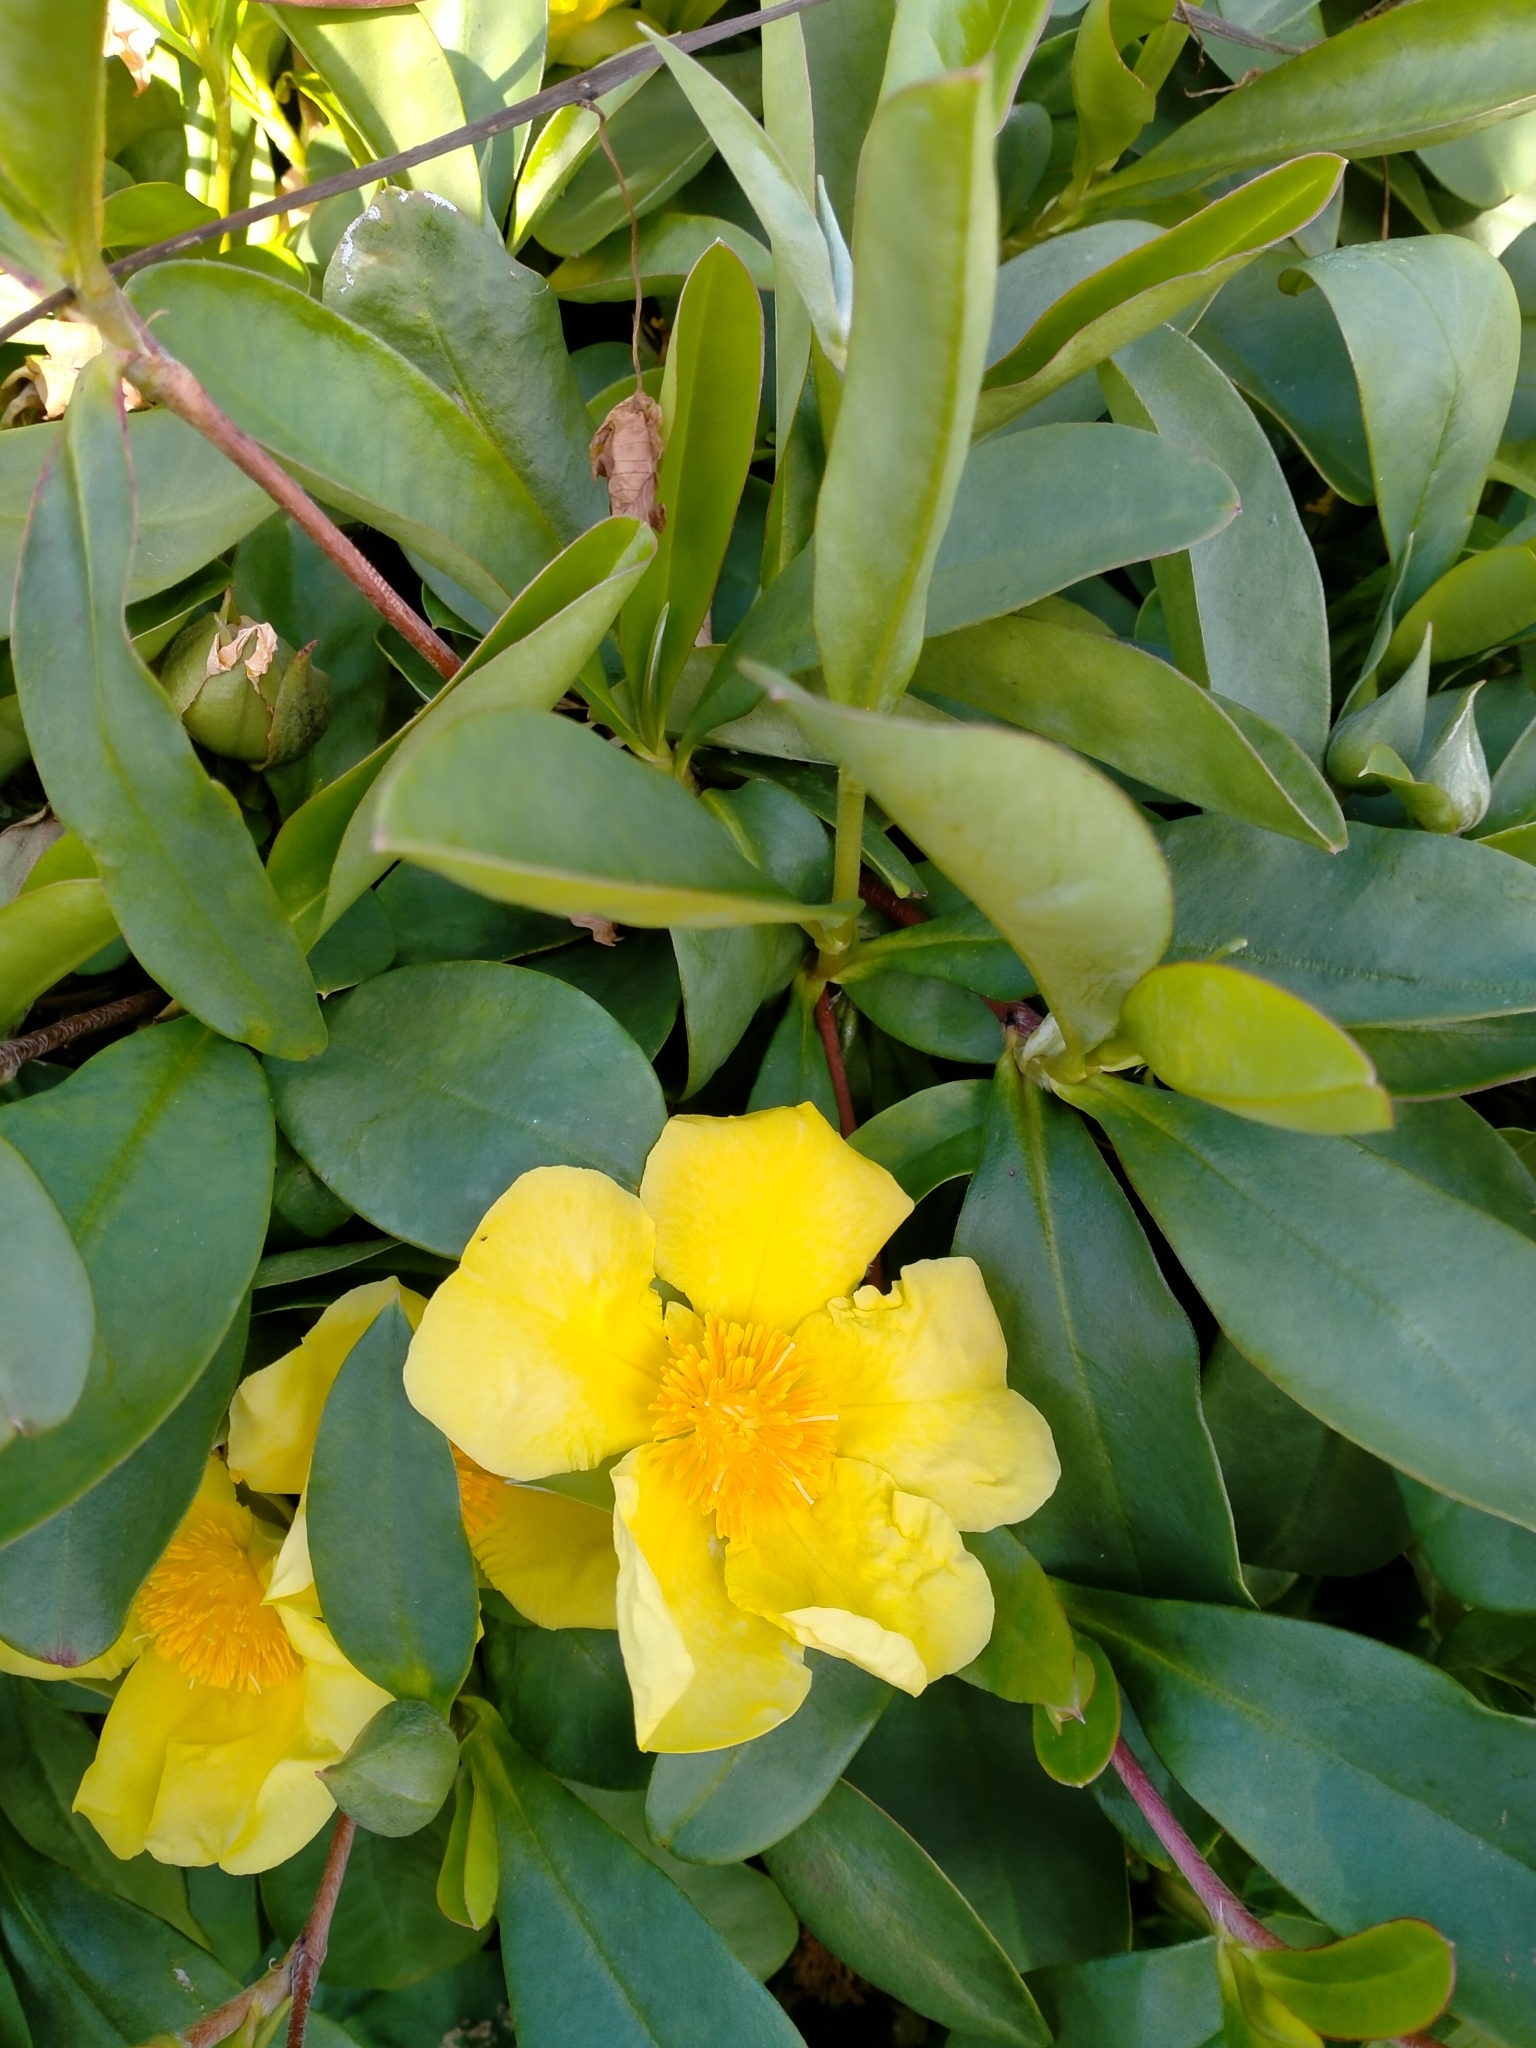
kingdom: Plantae
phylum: Tracheophyta
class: Magnoliopsida
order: Dilleniales
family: Dilleniaceae
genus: Hibbertia
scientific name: Hibbertia scandens
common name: Climbing guinea-flower
